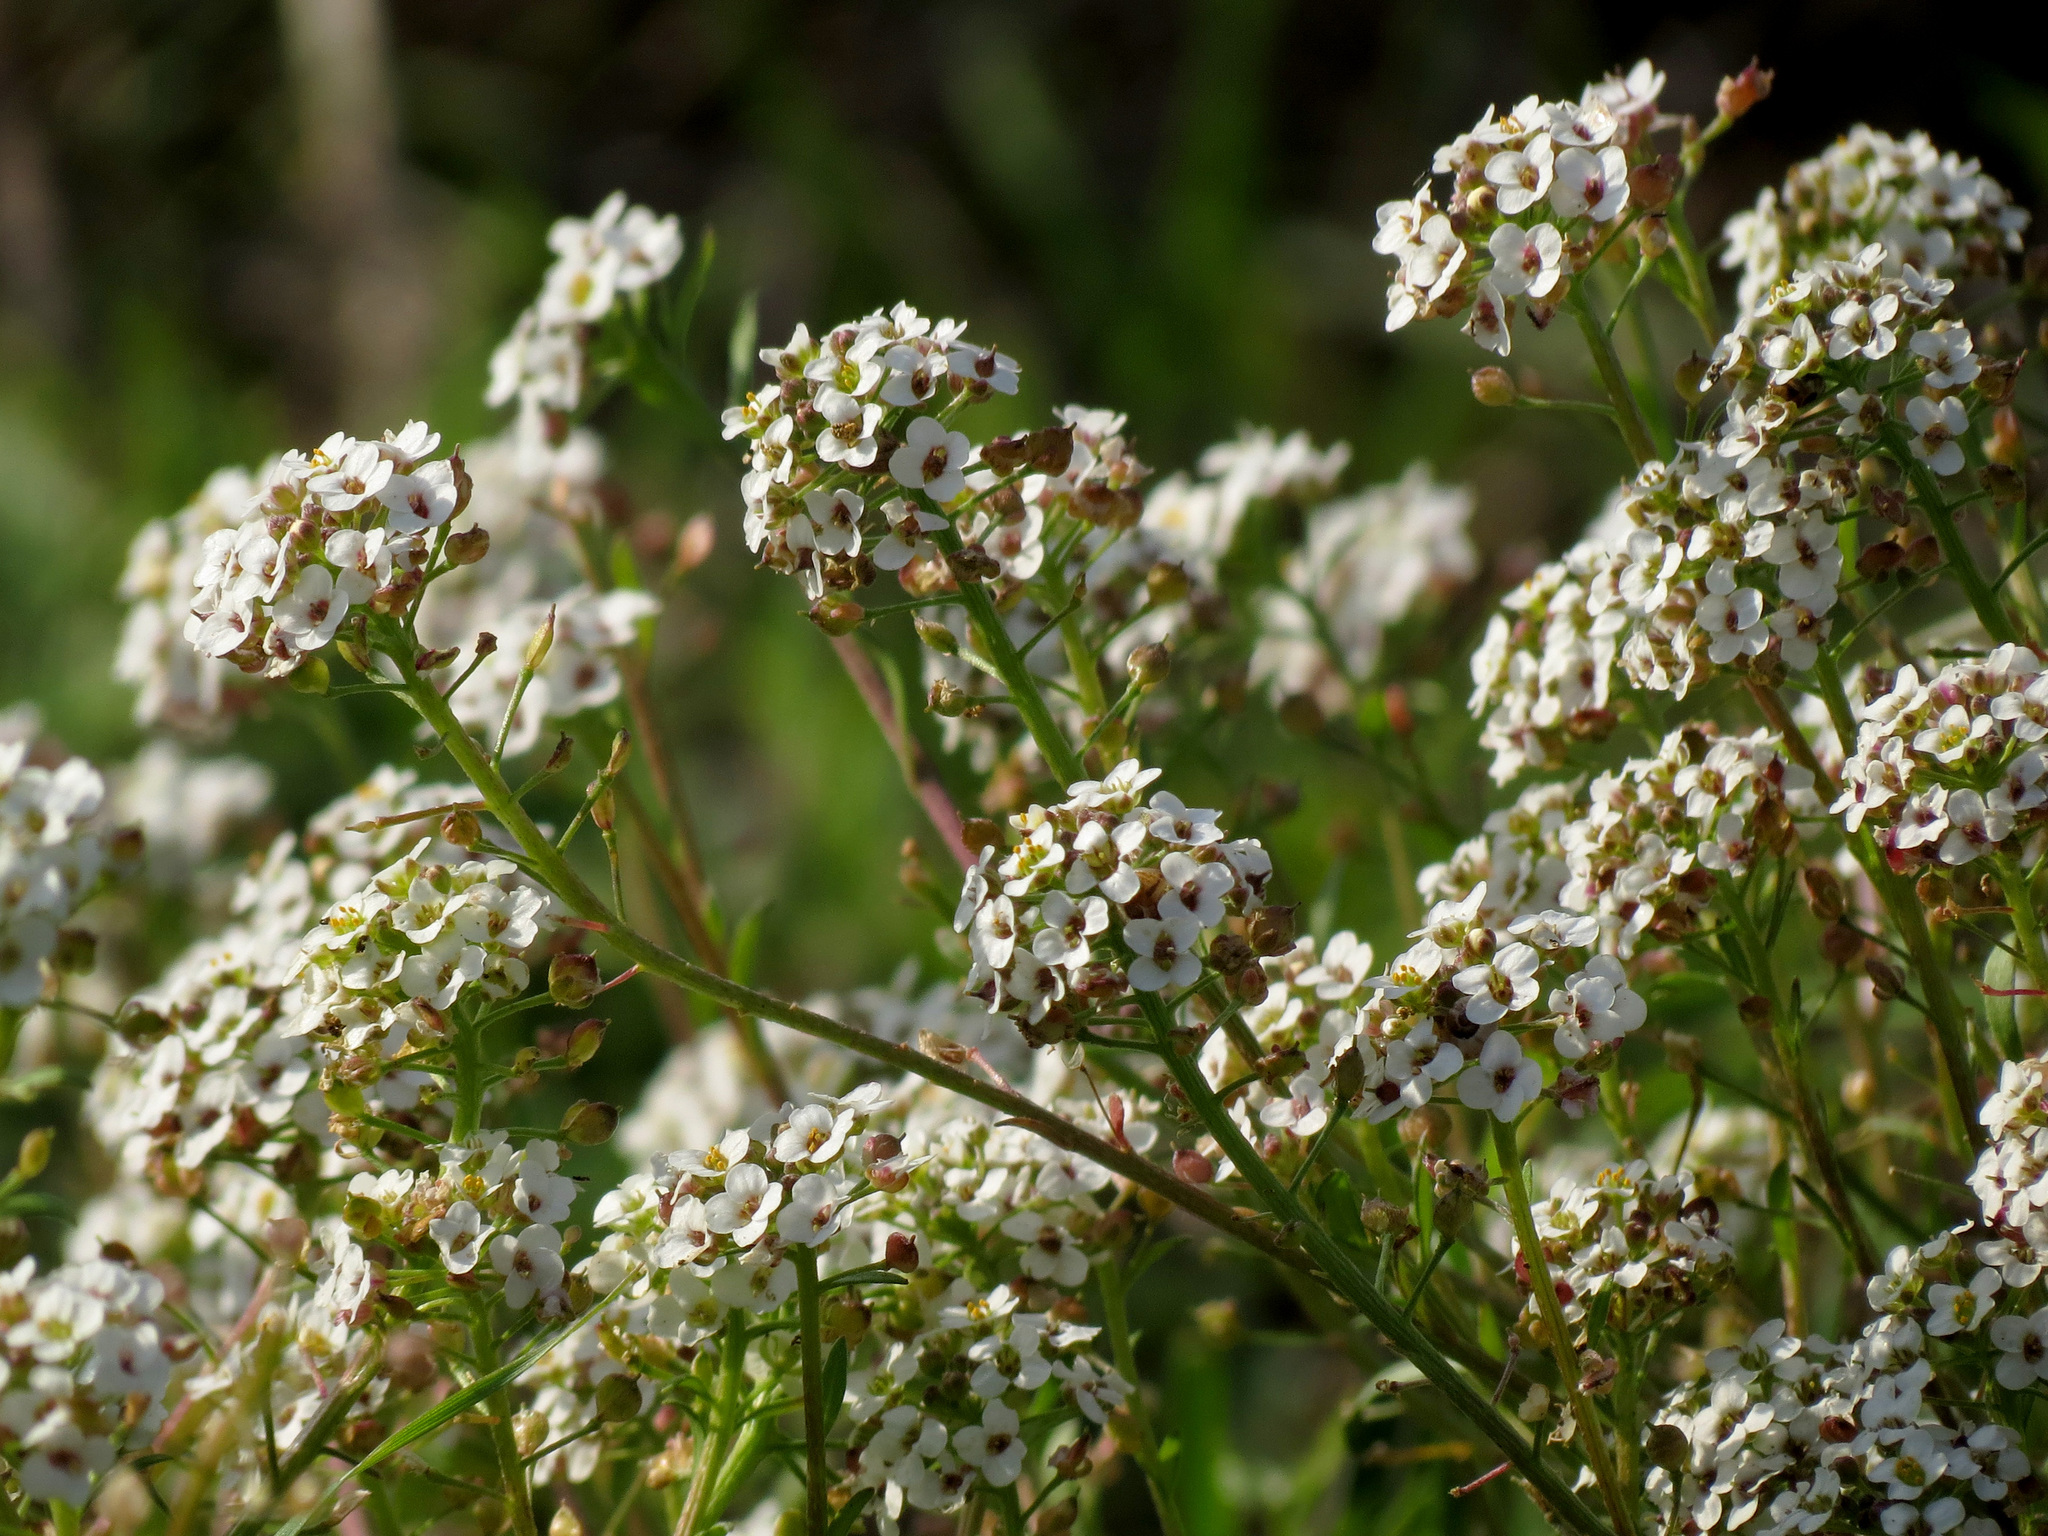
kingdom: Plantae
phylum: Tracheophyta
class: Magnoliopsida
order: Brassicales
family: Brassicaceae
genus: Lobularia
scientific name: Lobularia maritima
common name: Sweet alison
